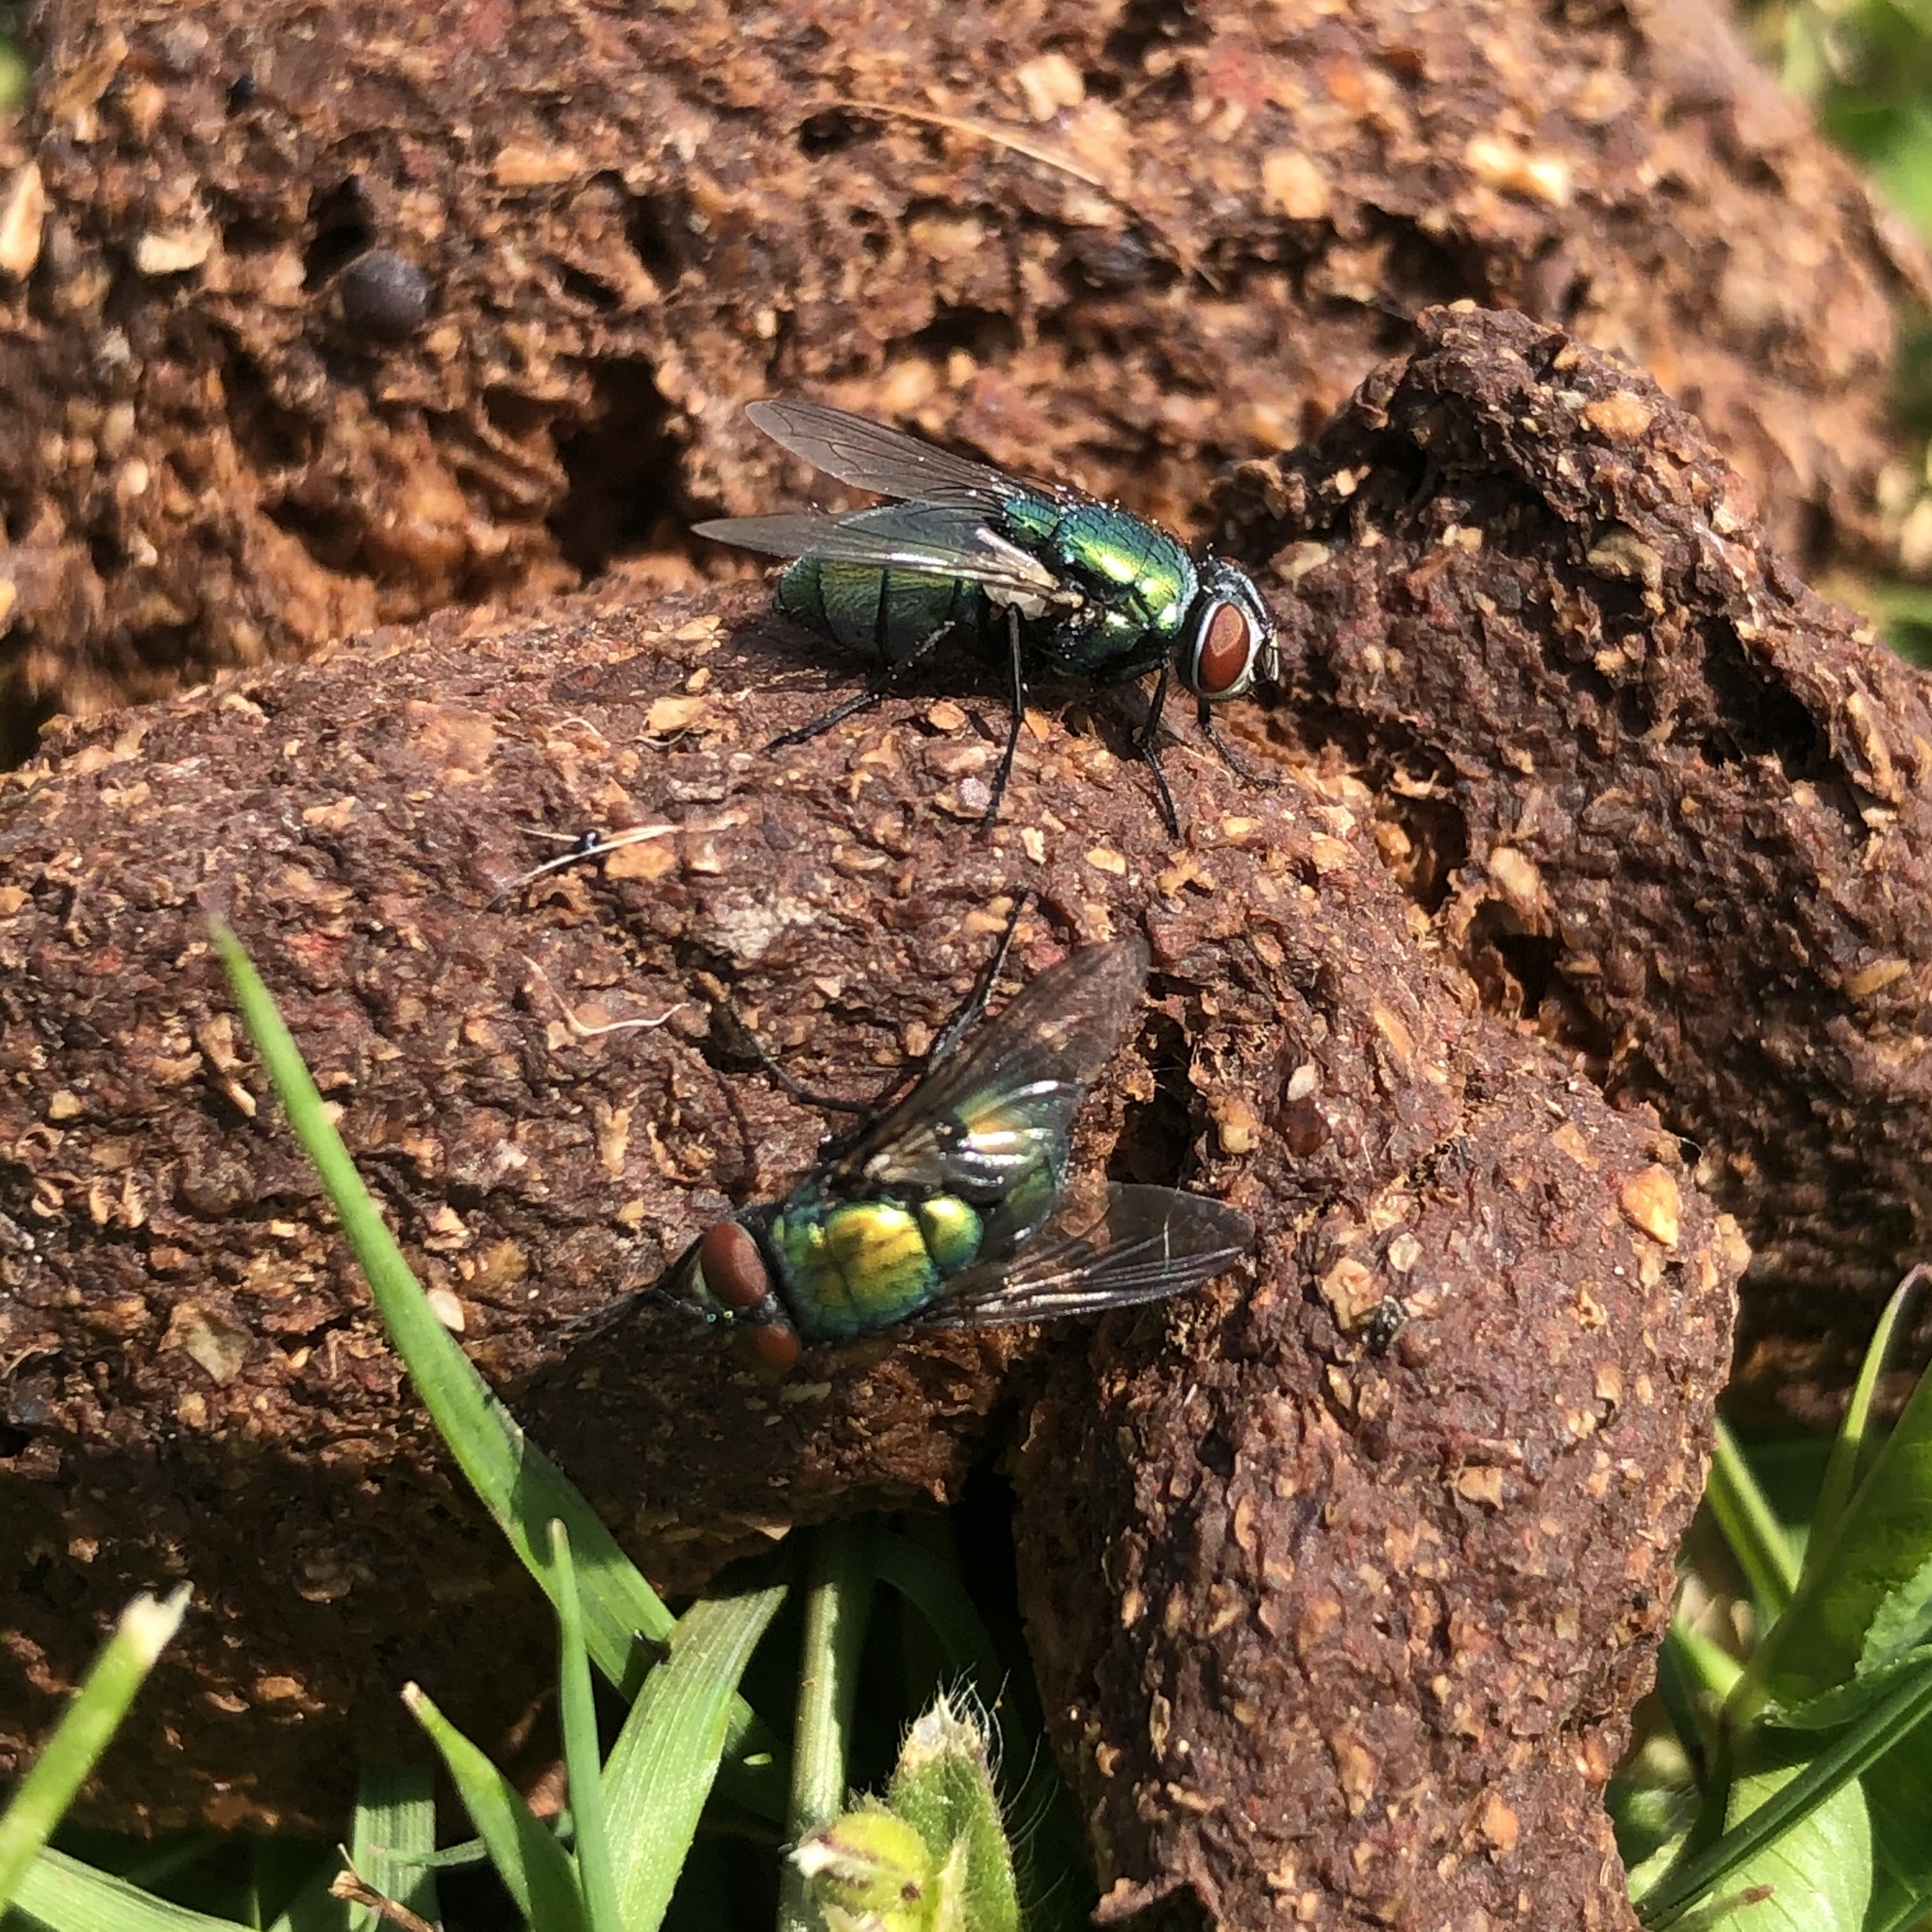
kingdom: Animalia
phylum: Arthropoda
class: Insecta
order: Diptera
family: Calliphoridae
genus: Lucilia
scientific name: Lucilia sericata
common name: Blow fly
